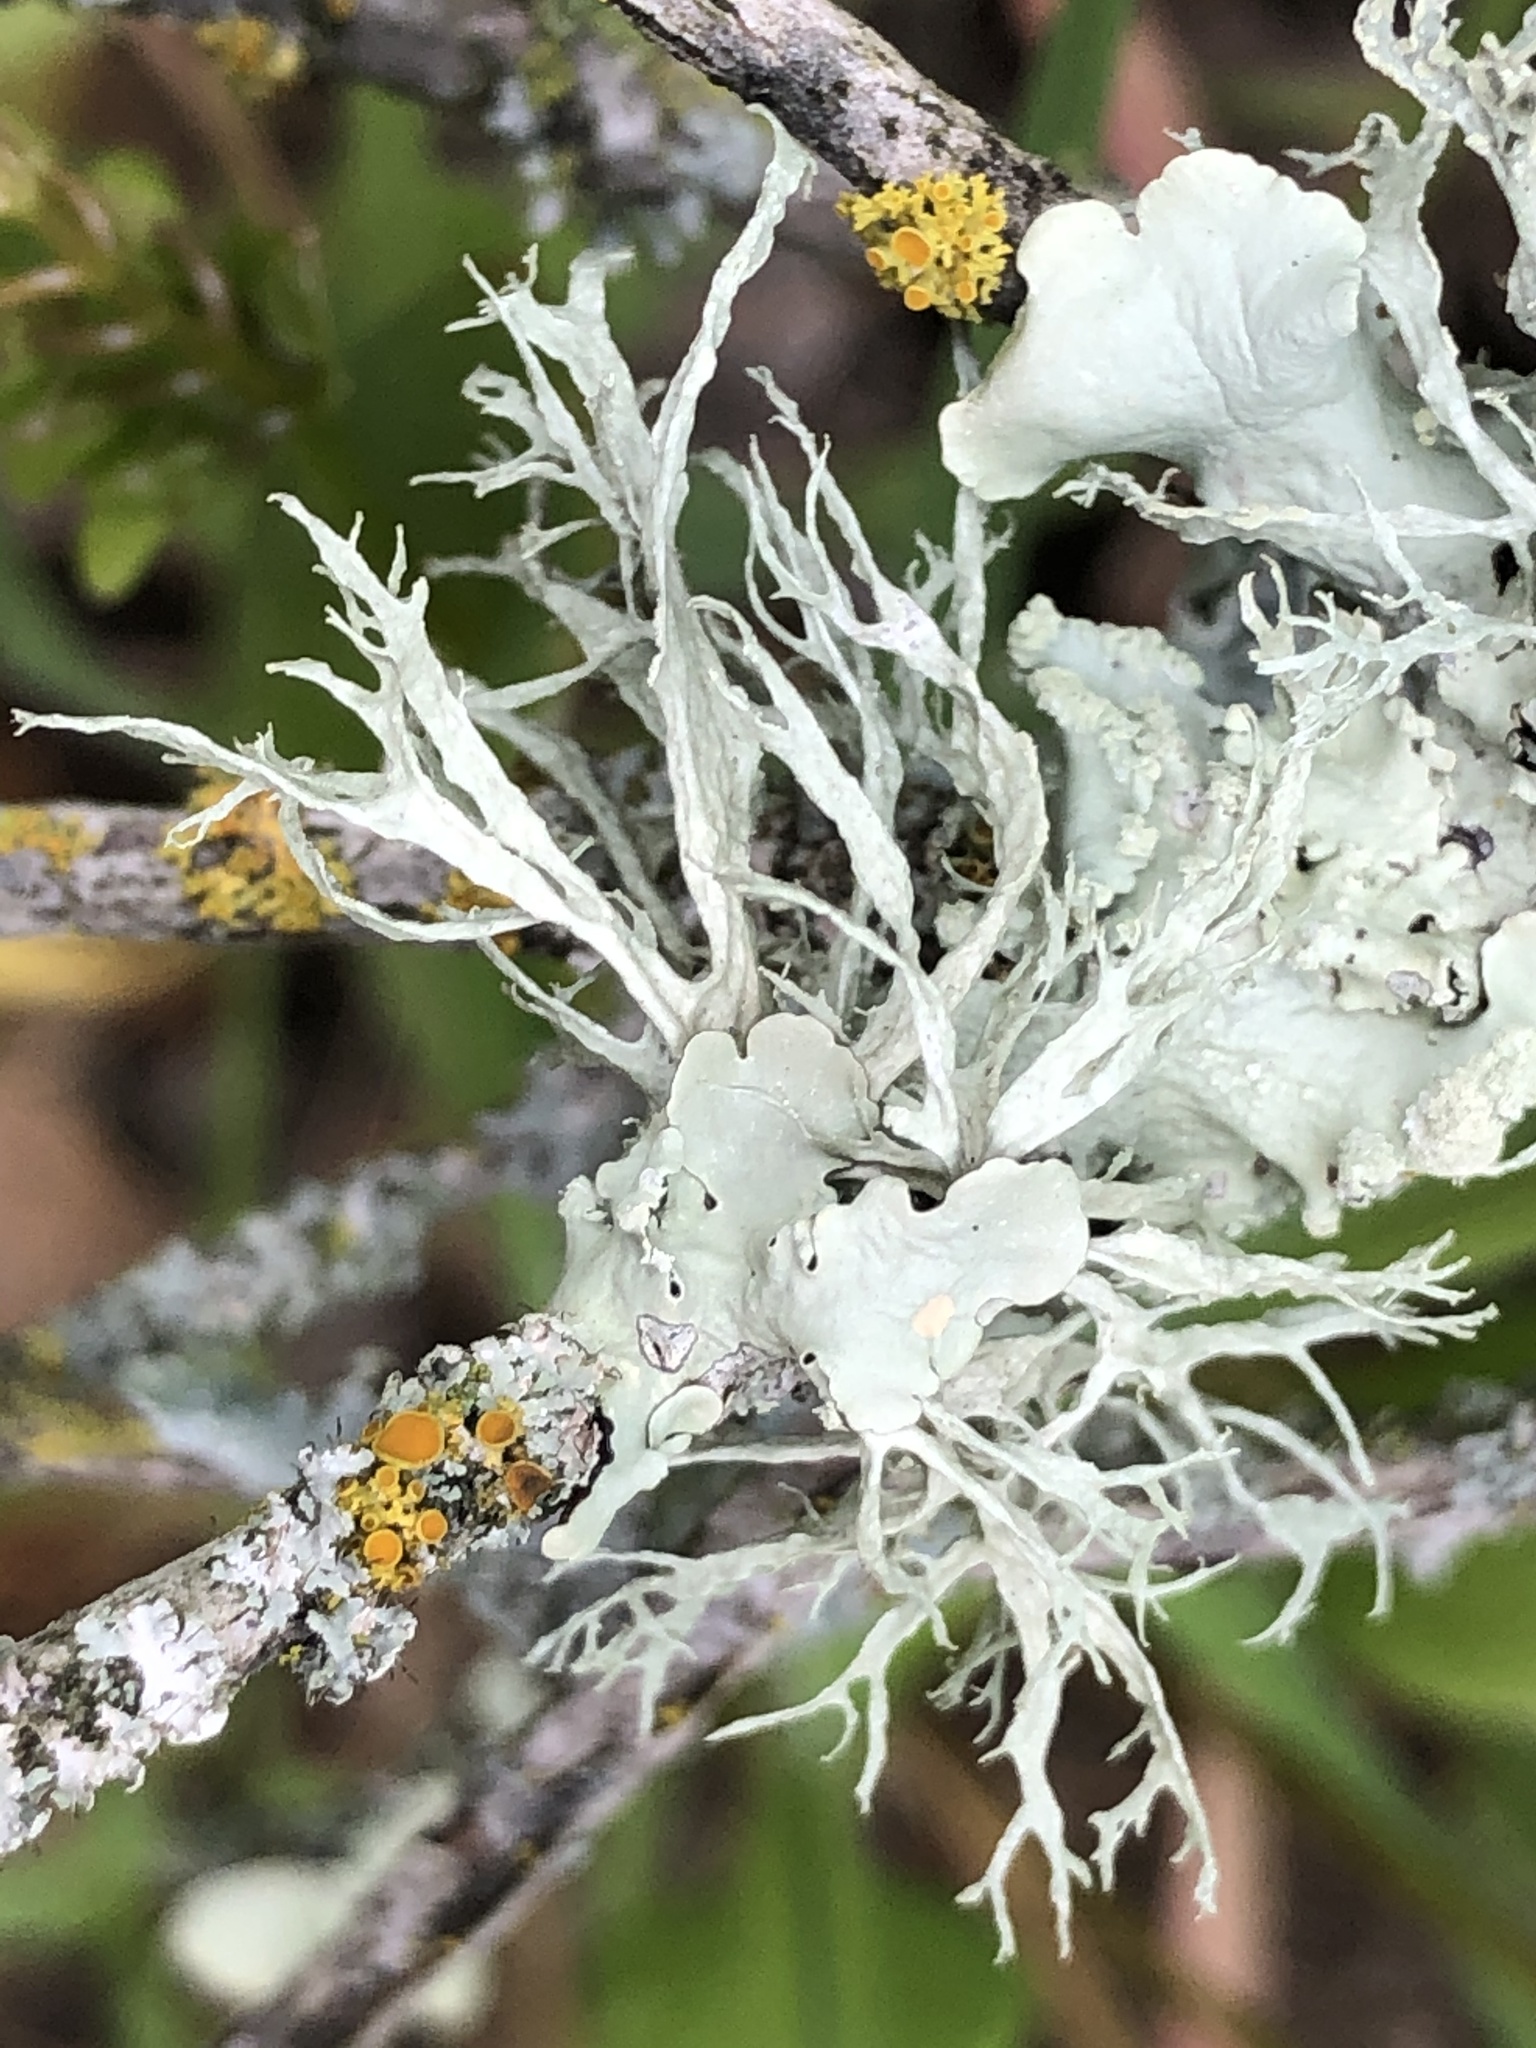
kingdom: Fungi
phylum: Ascomycota
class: Lecanoromycetes
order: Lecanorales
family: Ramalinaceae
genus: Ramalina
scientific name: Ramalina farinacea
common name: Farinose cartilage lichen
